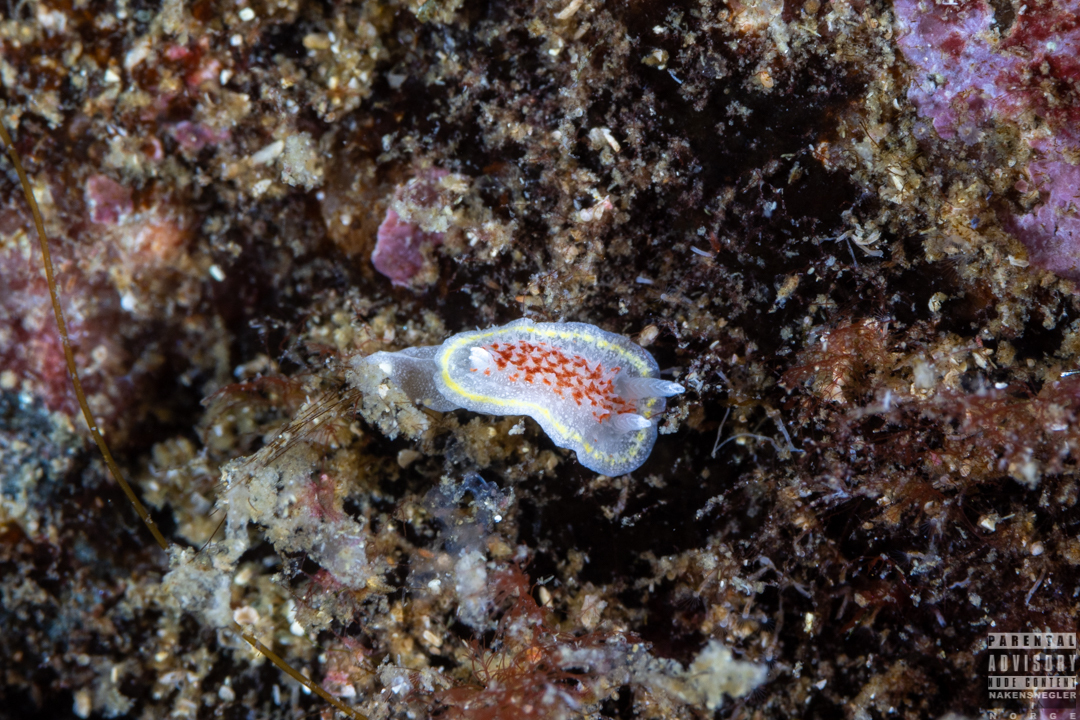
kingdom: Animalia
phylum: Mollusca
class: Gastropoda
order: Nudibranchia
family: Calycidorididae
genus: Diaphorodoris
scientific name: Diaphorodoris luteocincta
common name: Fried egg nudibranch
